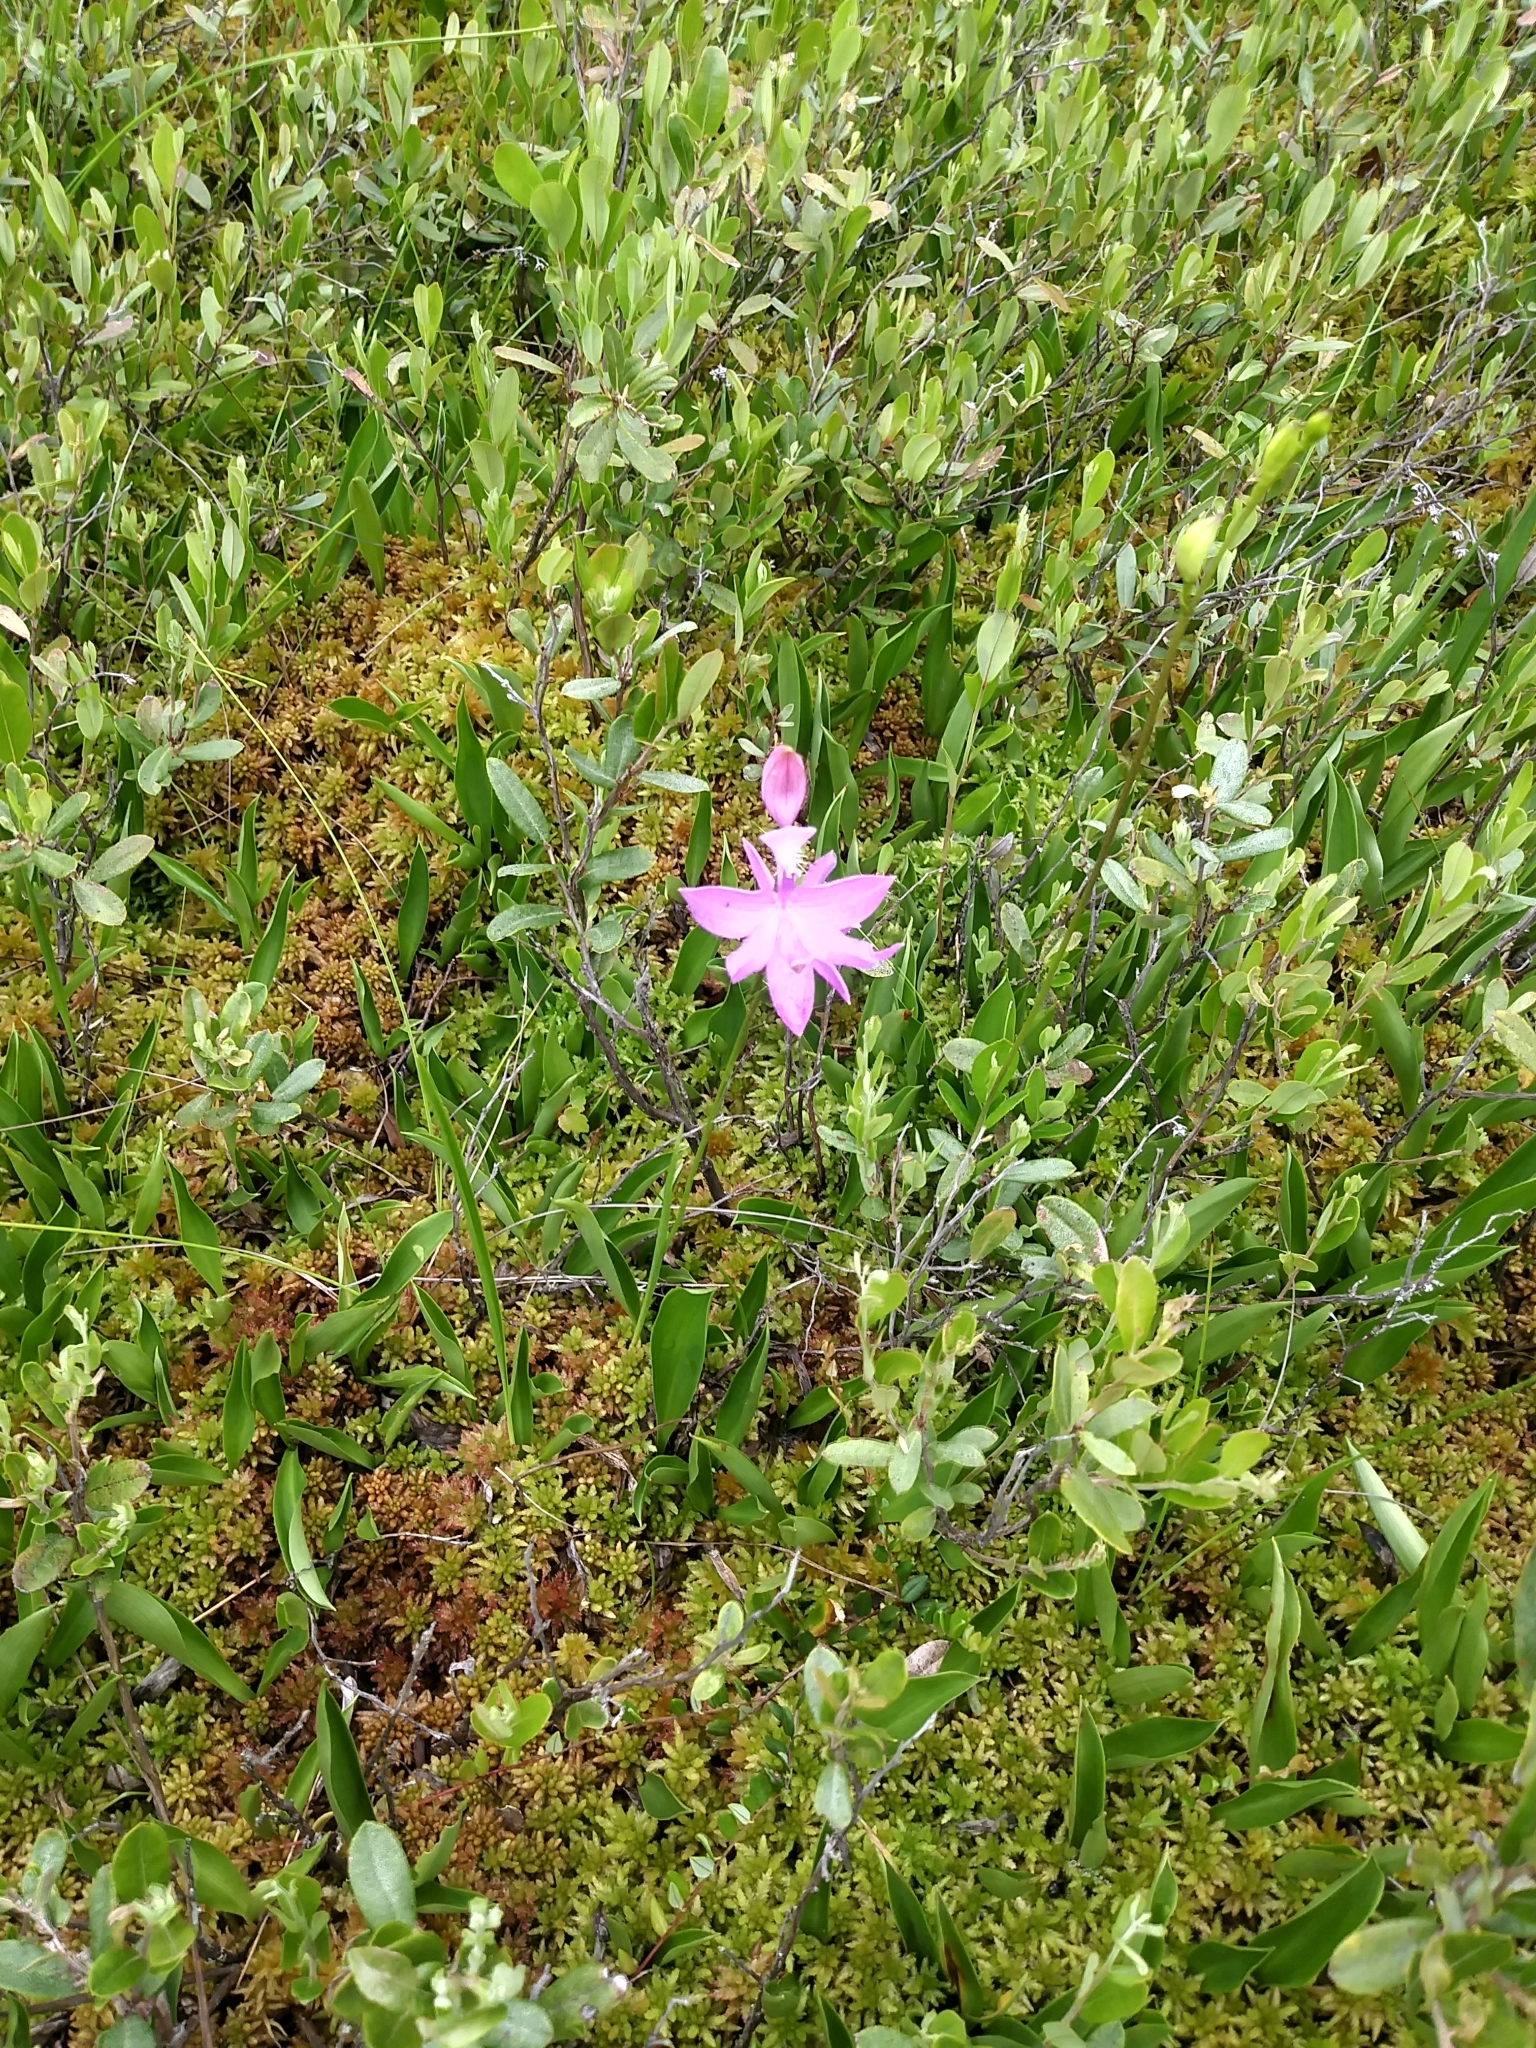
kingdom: Plantae
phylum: Tracheophyta
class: Liliopsida
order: Asparagales
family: Orchidaceae
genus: Calopogon
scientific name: Calopogon tuberosus
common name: Grass-pink
